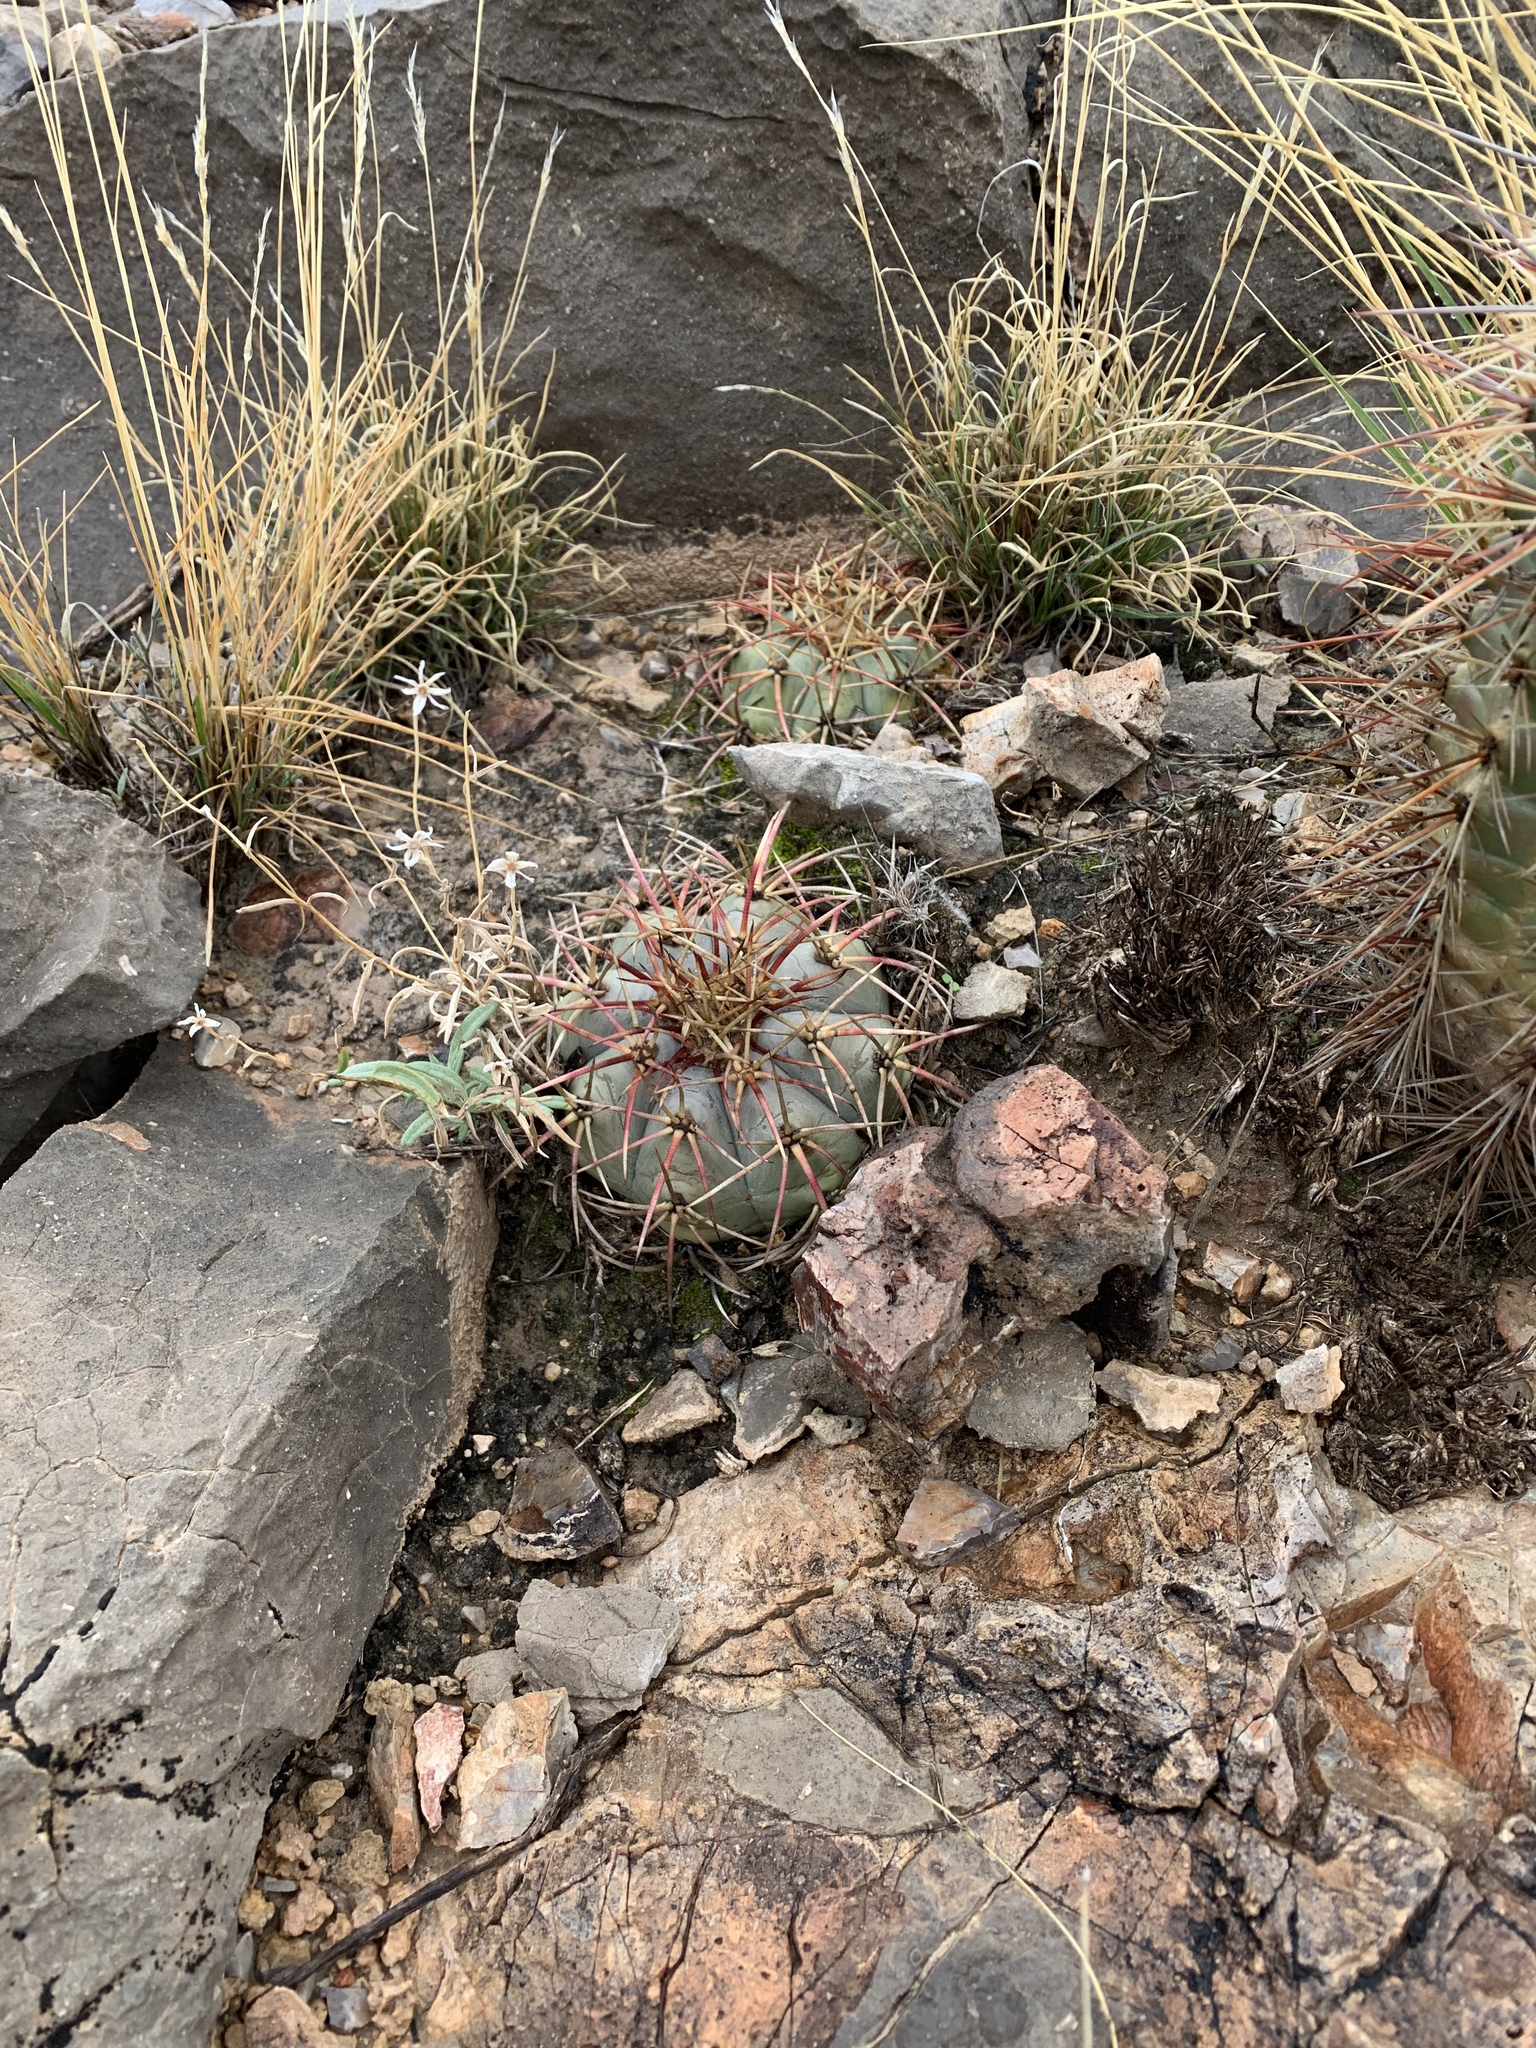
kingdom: Plantae
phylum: Tracheophyta
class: Magnoliopsida
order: Caryophyllales
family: Cactaceae
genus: Echinocactus
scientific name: Echinocactus horizonthalonius
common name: Devilshead
